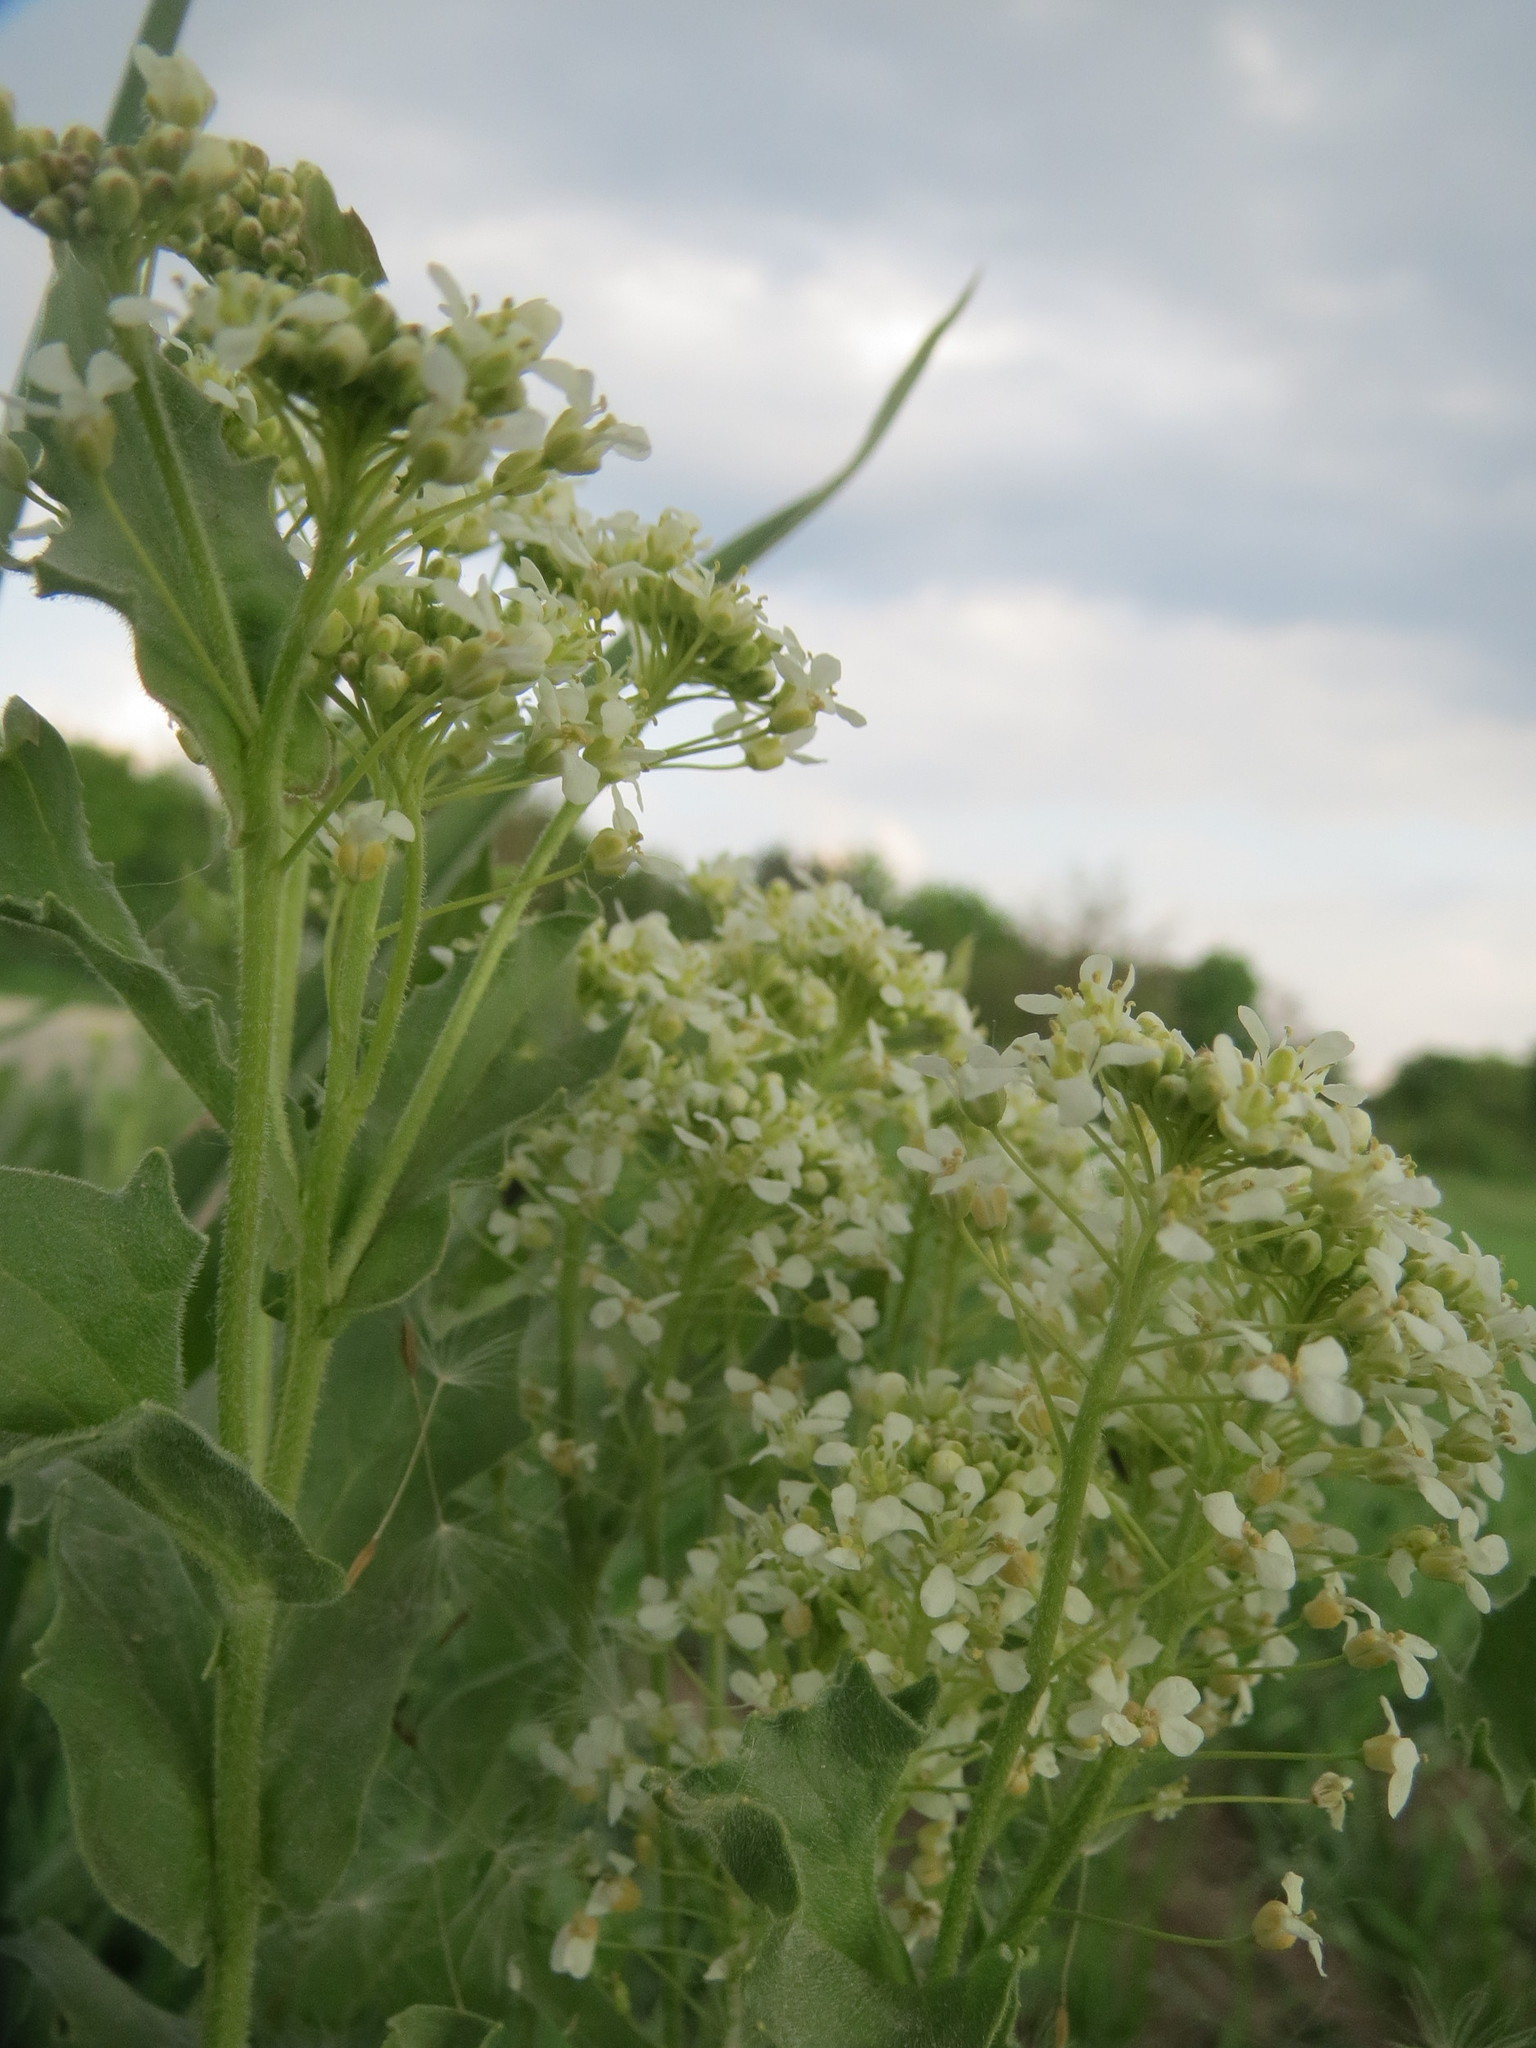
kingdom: Plantae
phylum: Tracheophyta
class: Magnoliopsida
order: Brassicales
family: Brassicaceae
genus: Lepidium
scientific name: Lepidium draba
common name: Hoary cress
